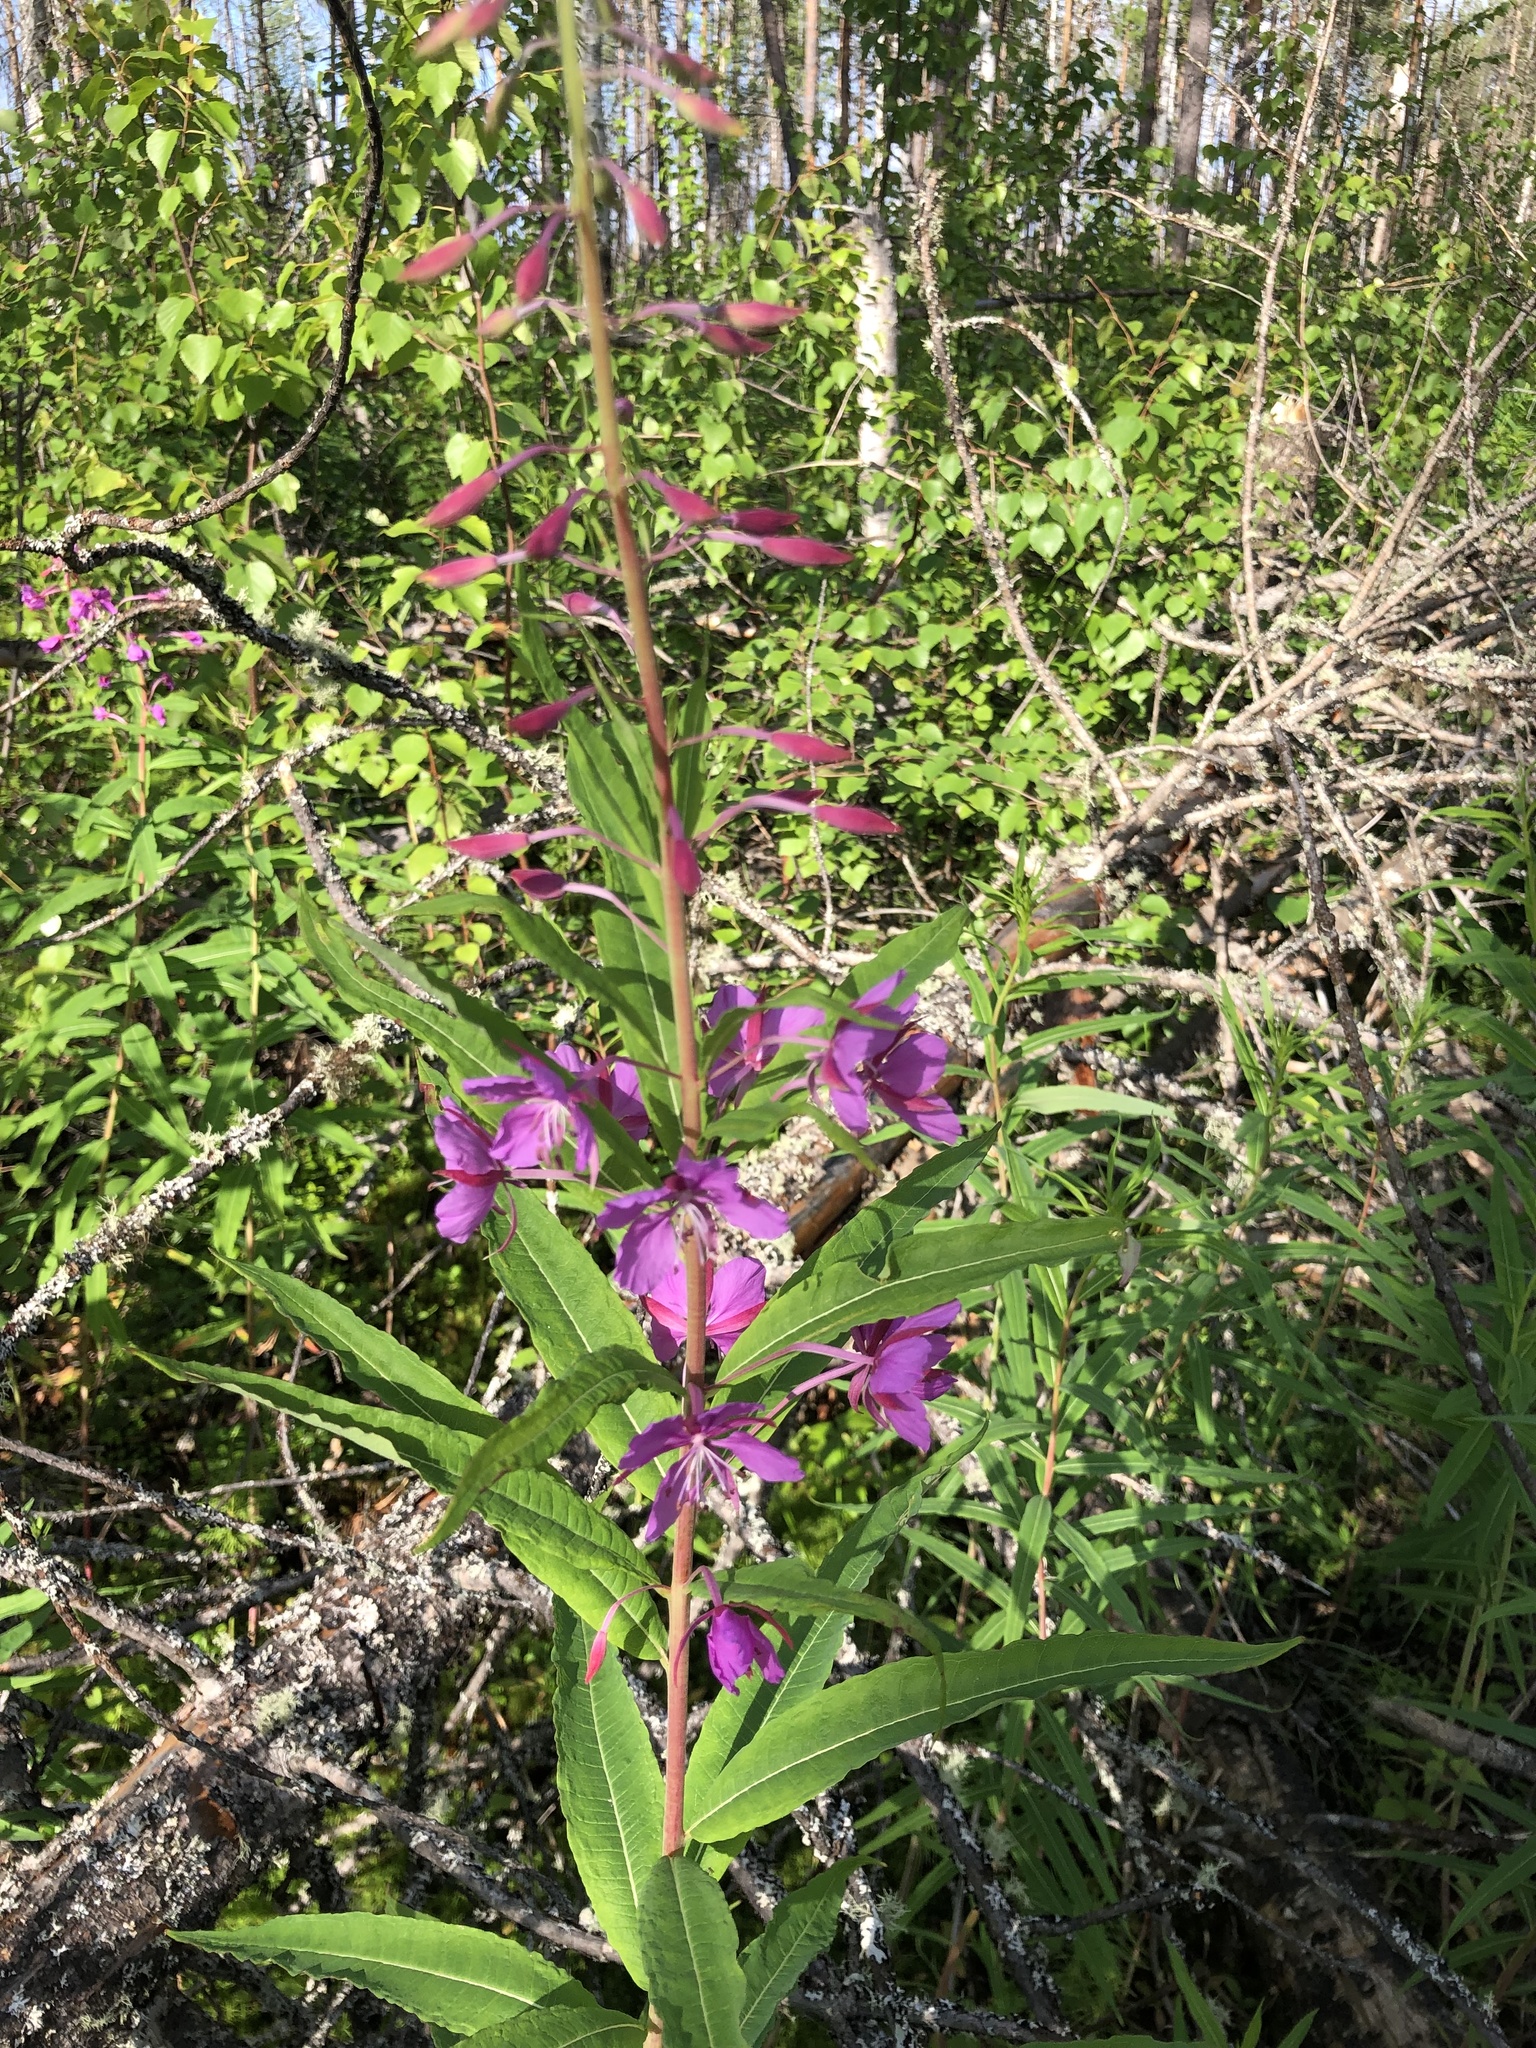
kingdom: Plantae
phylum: Tracheophyta
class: Magnoliopsida
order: Myrtales
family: Onagraceae
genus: Chamaenerion
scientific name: Chamaenerion angustifolium
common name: Fireweed
